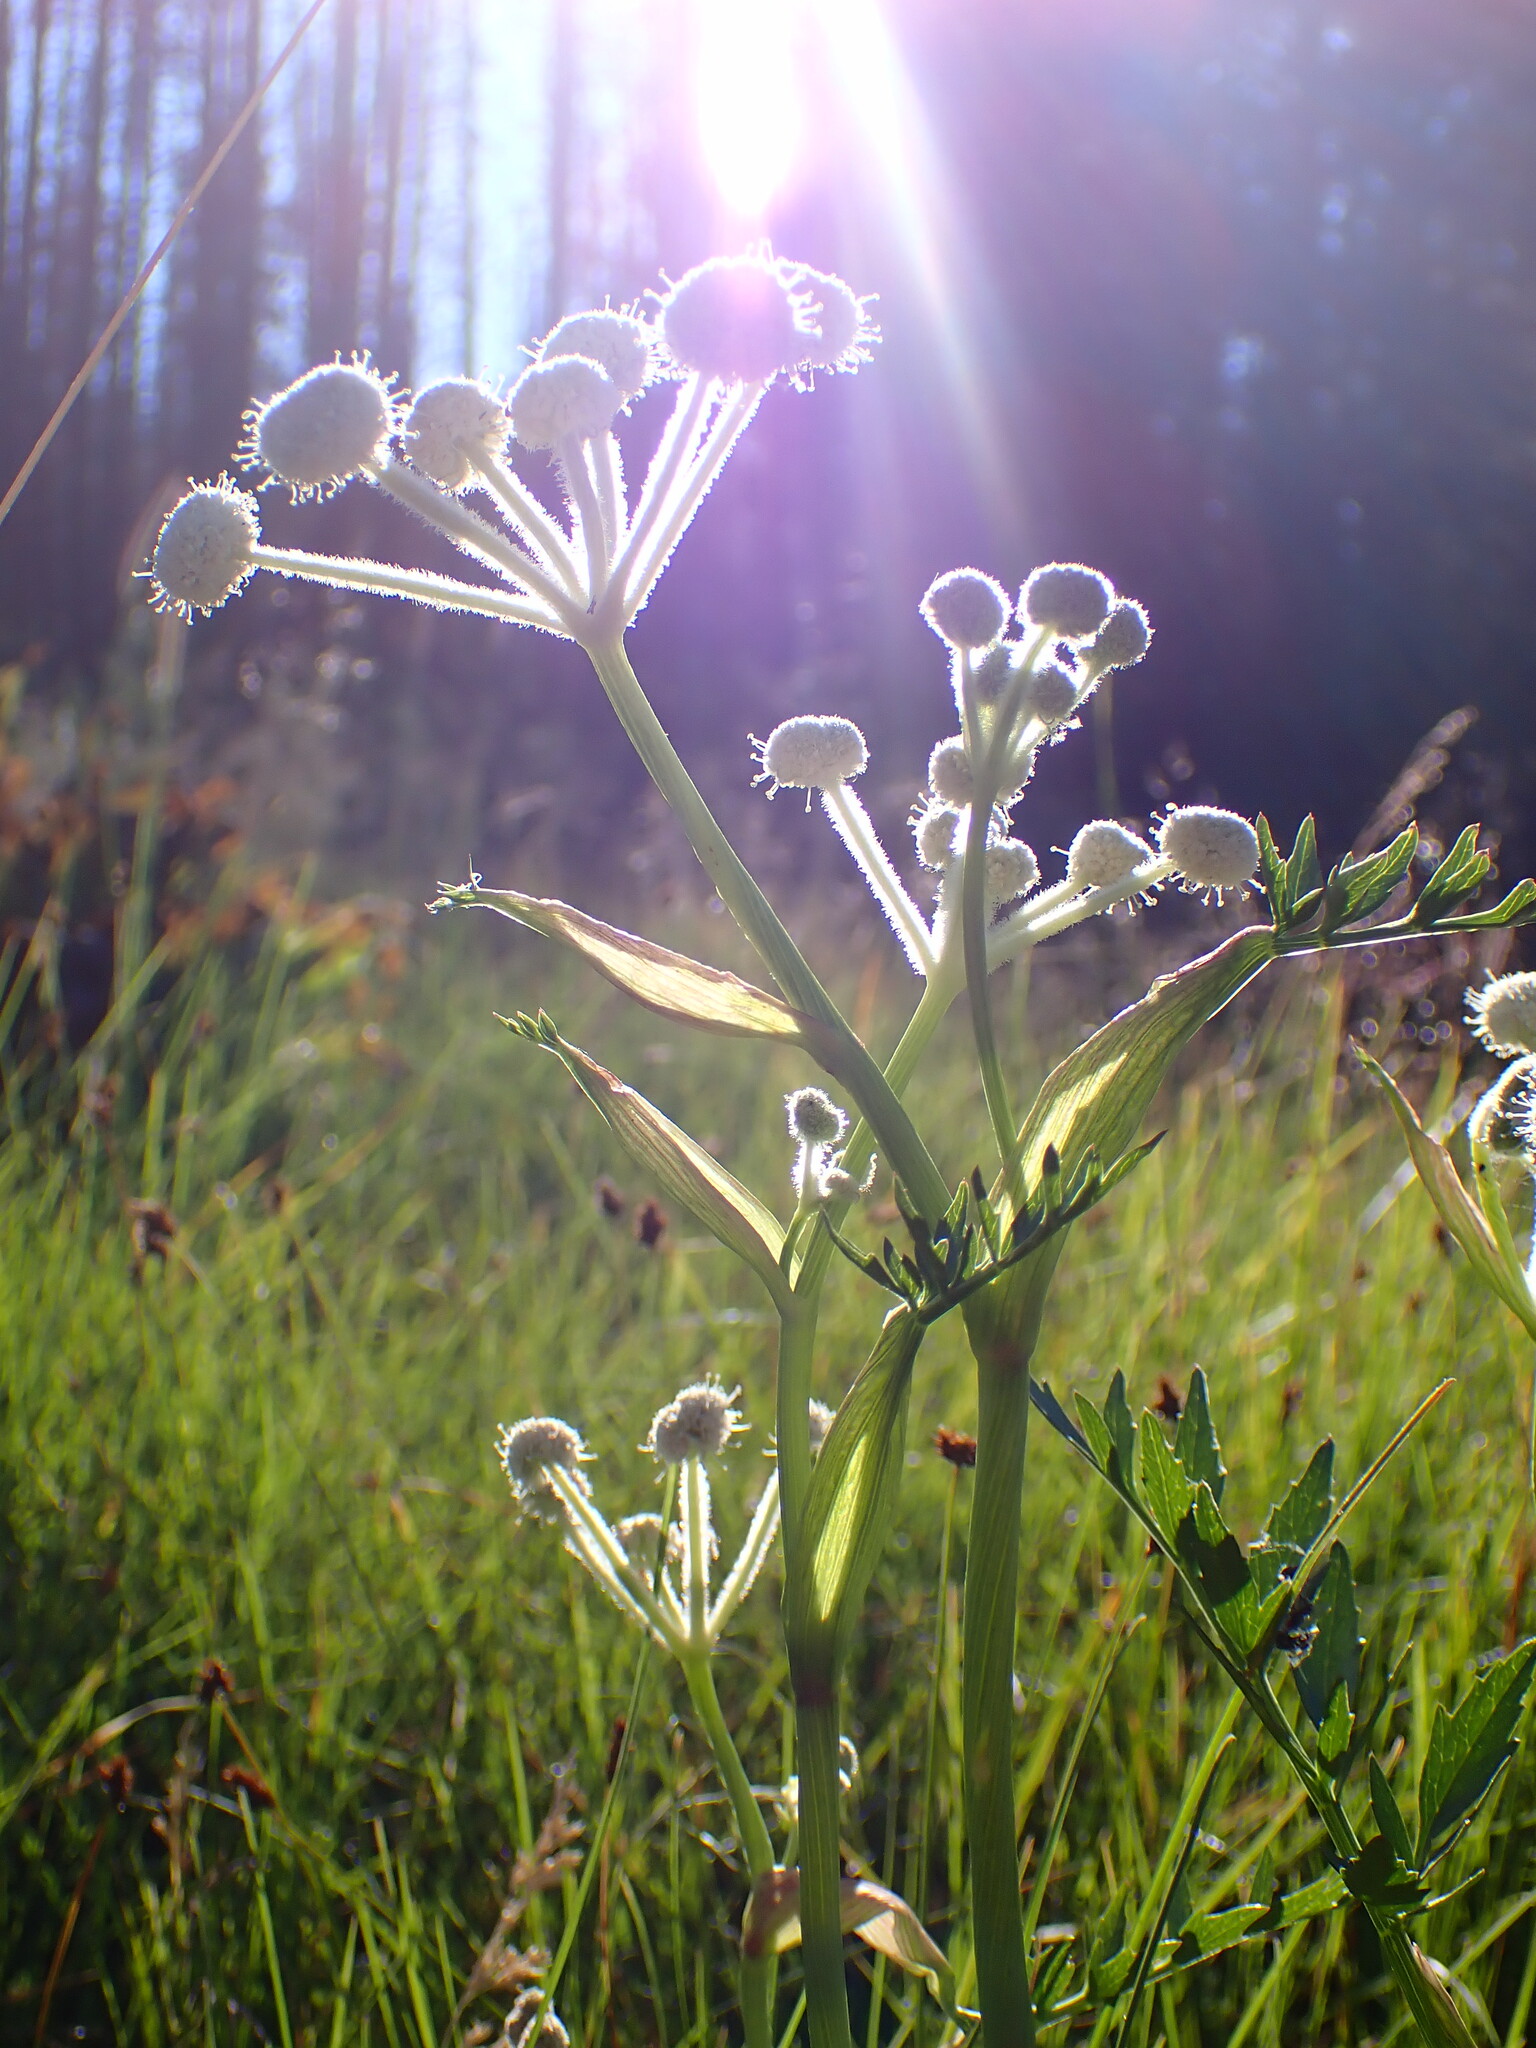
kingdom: Plantae
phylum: Tracheophyta
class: Magnoliopsida
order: Apiales
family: Apiaceae
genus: Angelica
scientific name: Angelica capitellata
